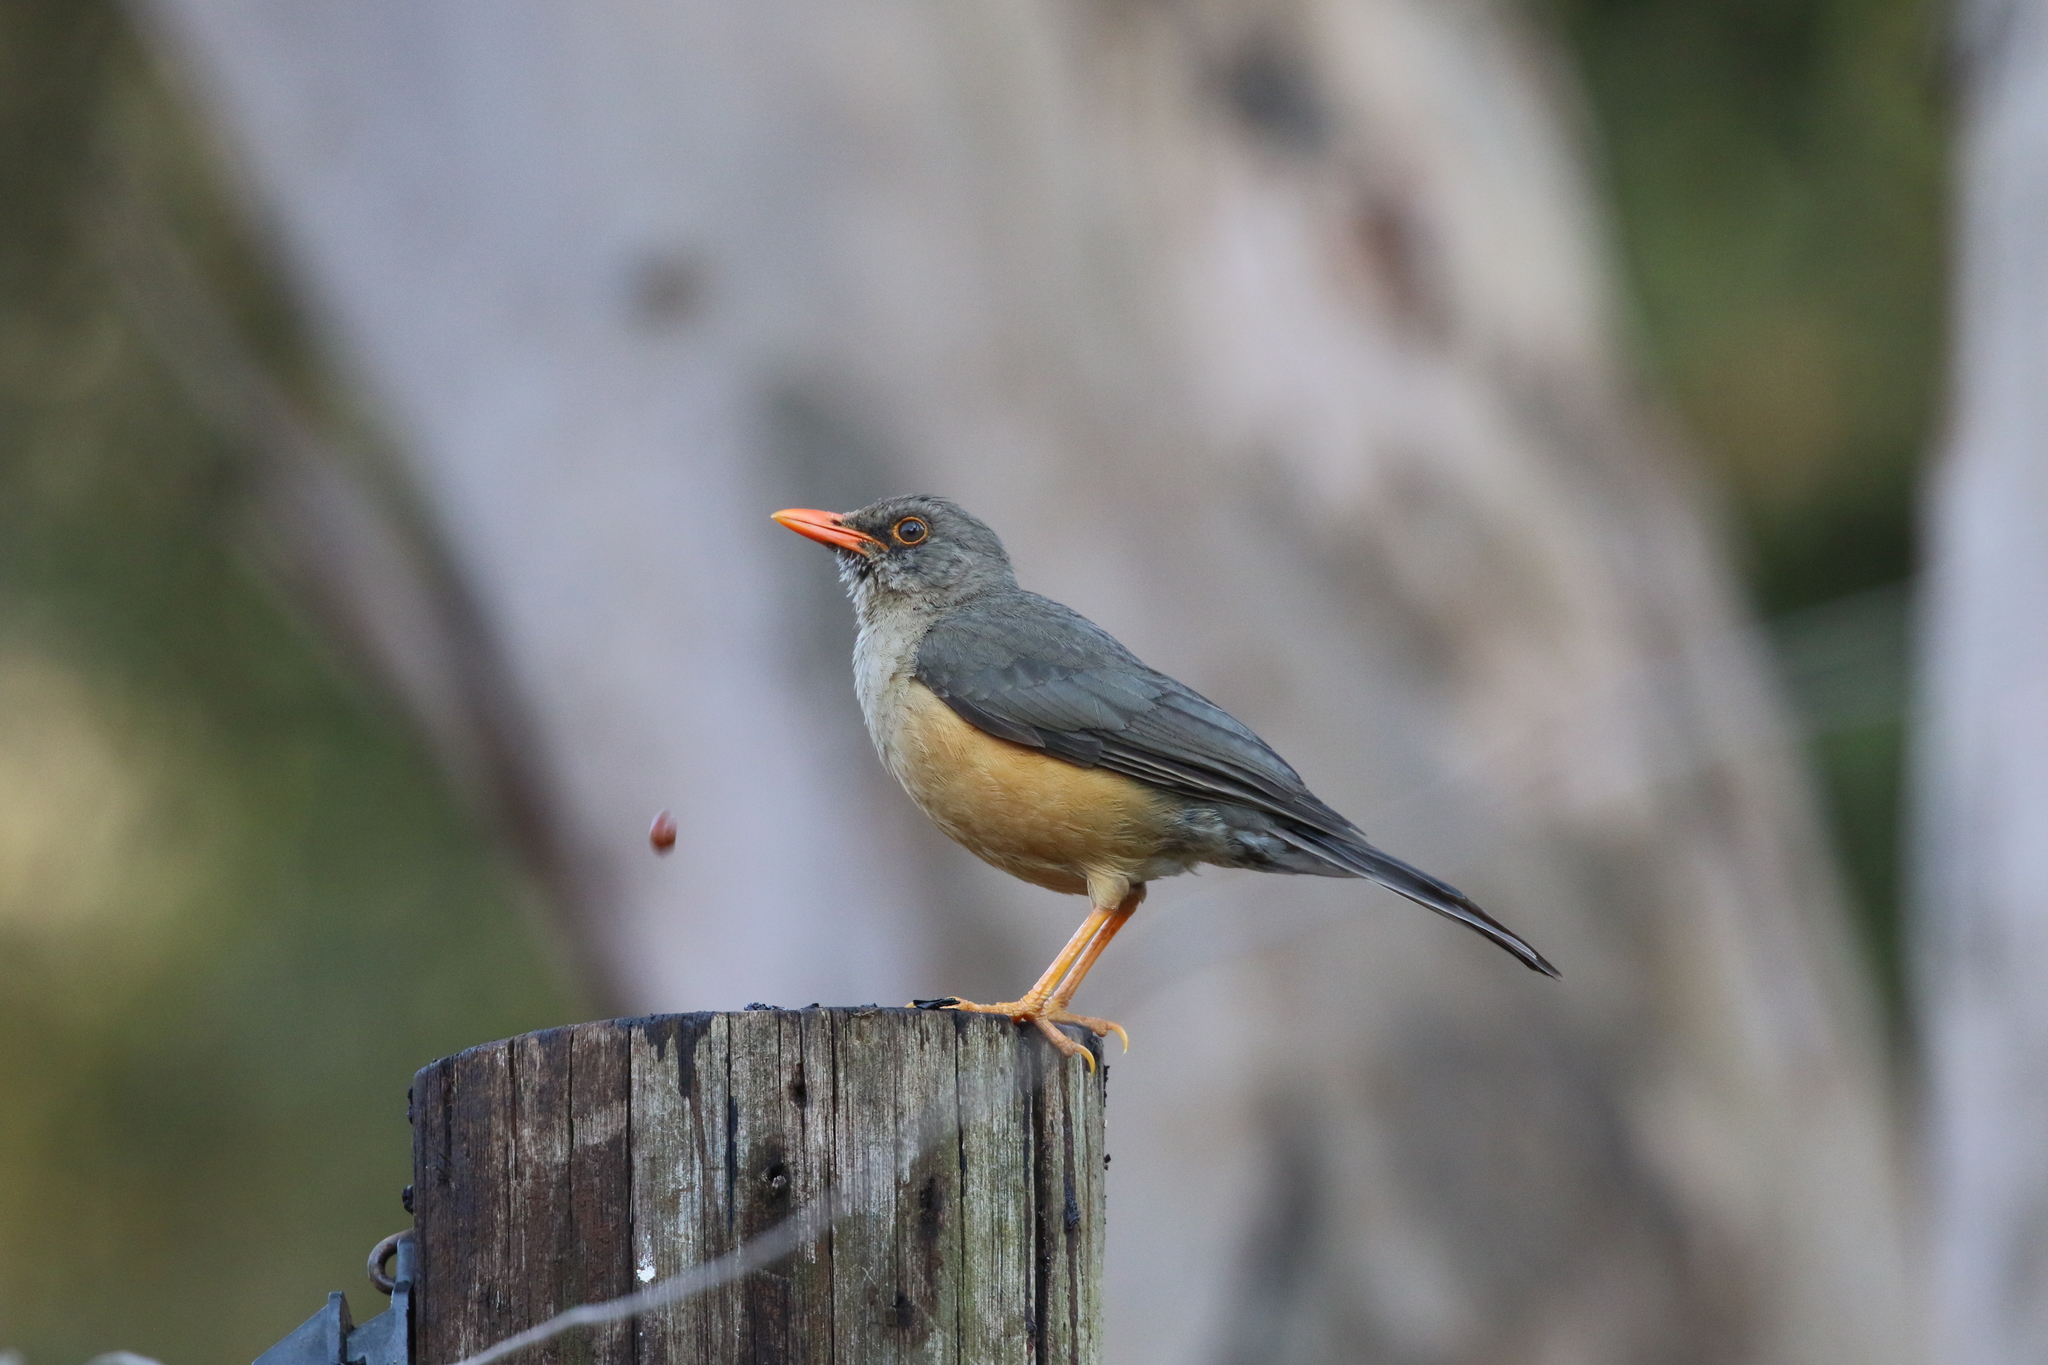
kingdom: Animalia
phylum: Chordata
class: Aves
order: Passeriformes
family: Turdidae
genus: Turdus
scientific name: Turdus abyssinicus
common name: Abyssinian thrush
